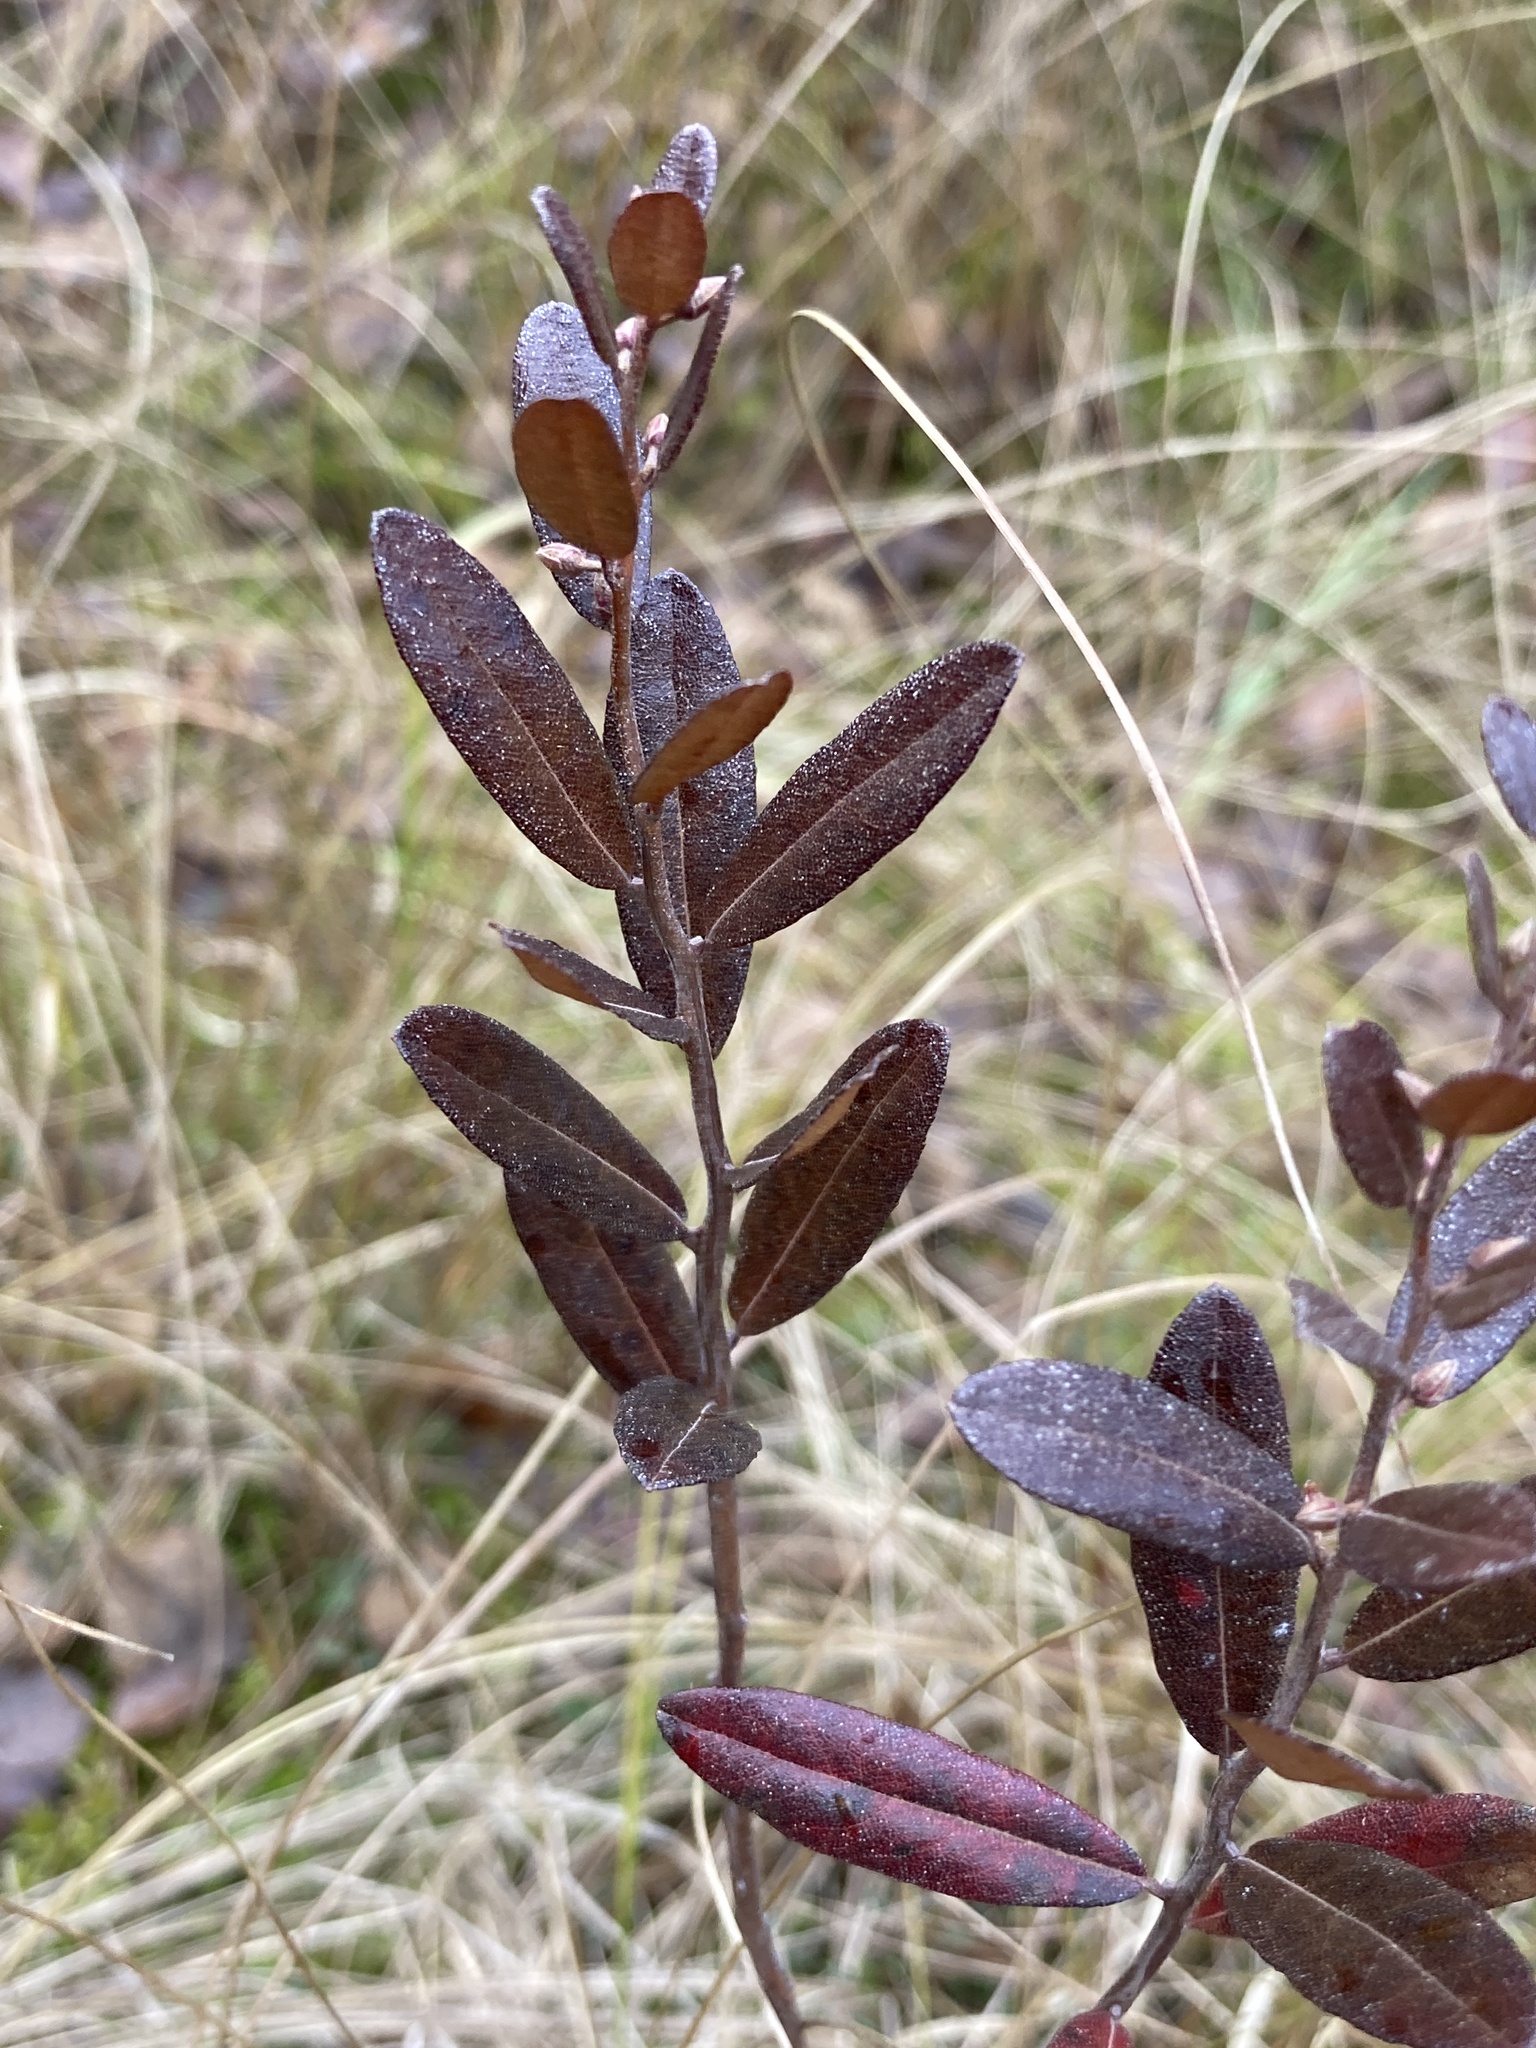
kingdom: Plantae
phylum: Tracheophyta
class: Magnoliopsida
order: Ericales
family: Ericaceae
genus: Chamaedaphne
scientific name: Chamaedaphne calyculata
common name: Leatherleaf
